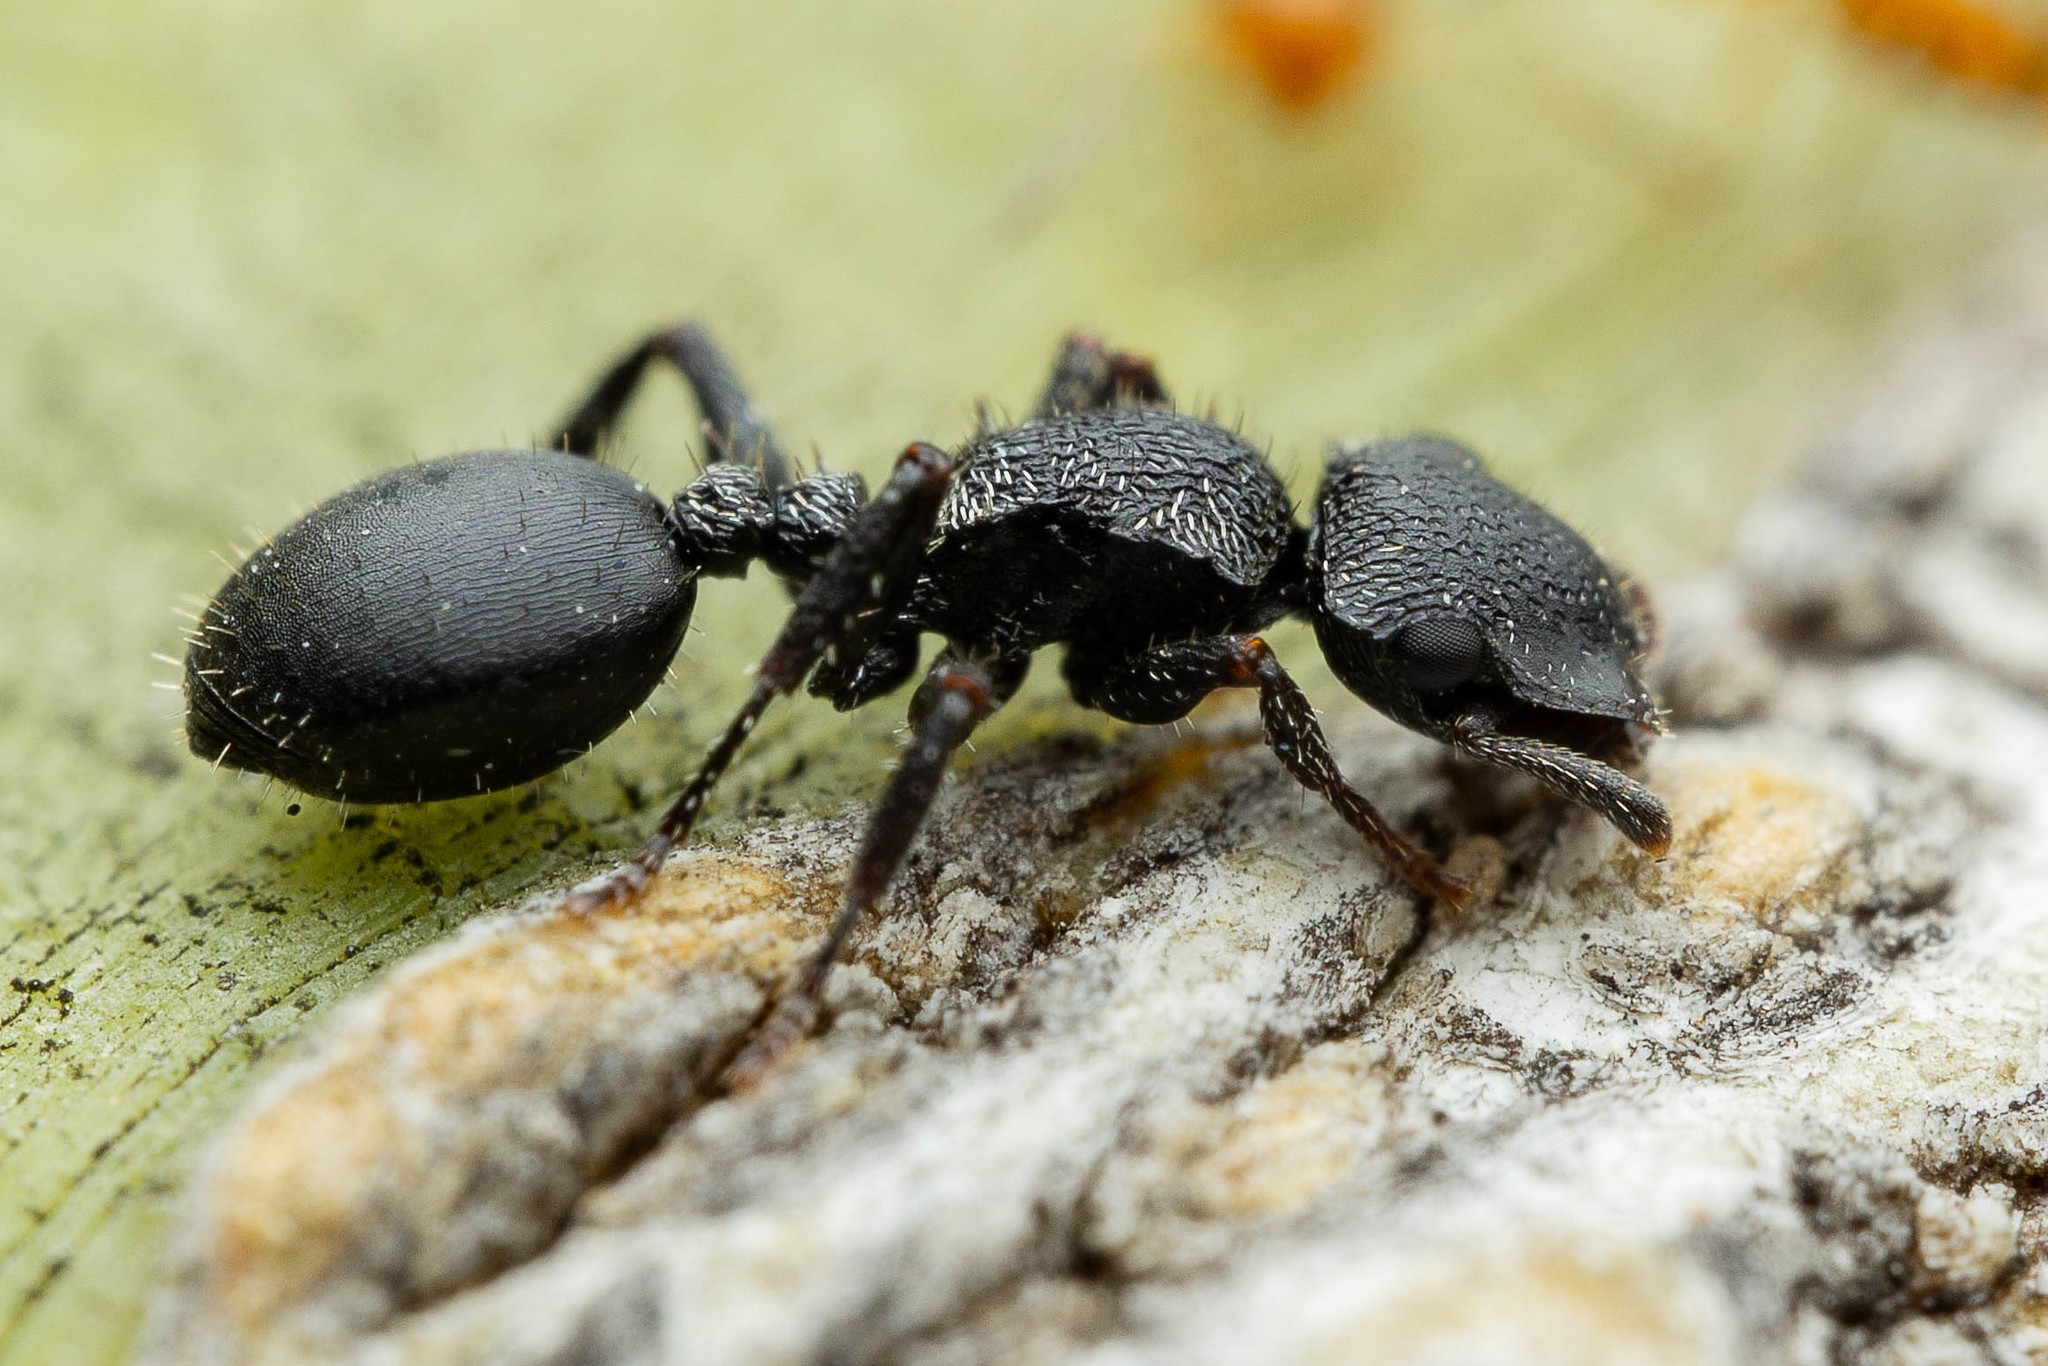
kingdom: Animalia
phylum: Arthropoda
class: Insecta
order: Hymenoptera
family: Formicidae
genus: Cephalotes
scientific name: Cephalotes rohweri
